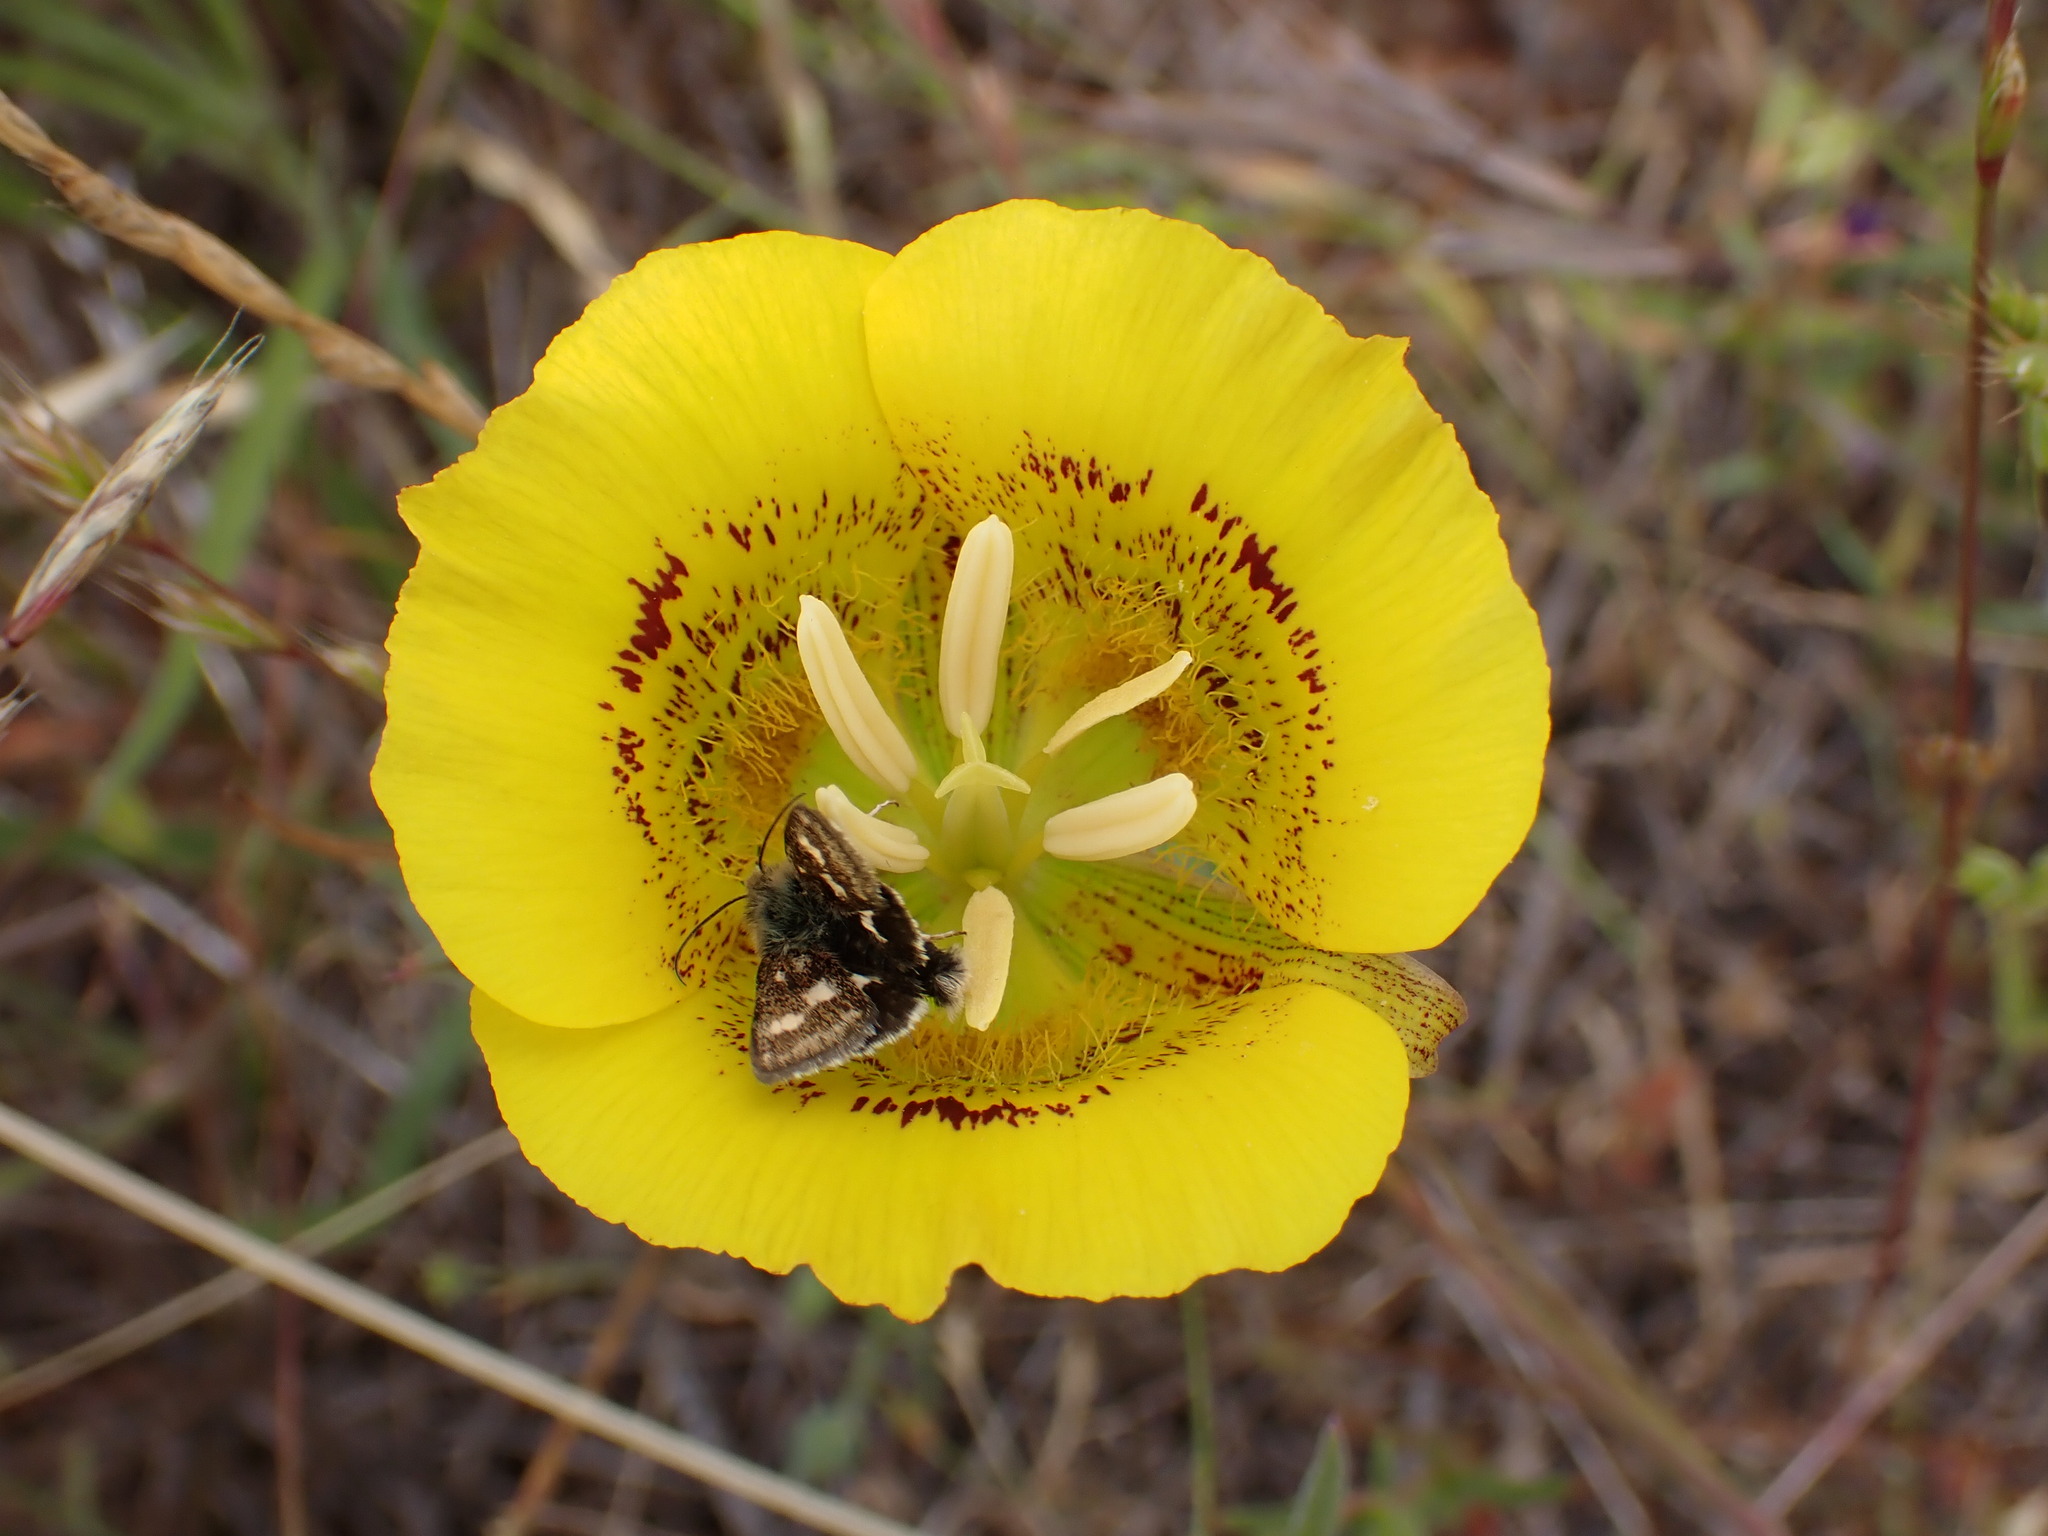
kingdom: Plantae
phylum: Tracheophyta
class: Liliopsida
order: Liliales
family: Liliaceae
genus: Calochortus
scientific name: Calochortus luteus
